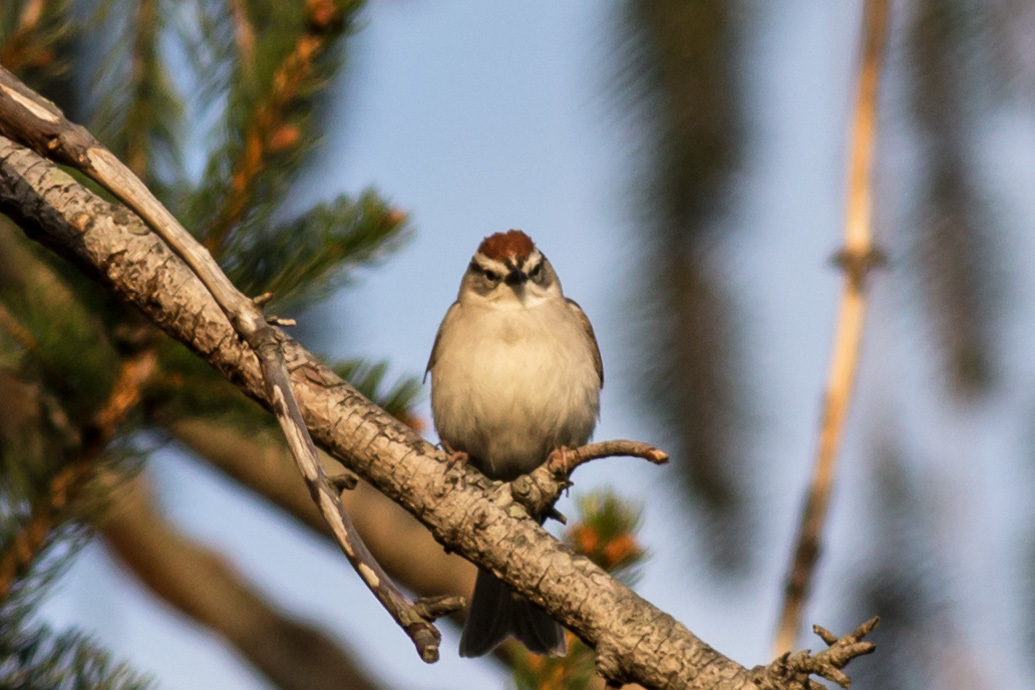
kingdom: Animalia
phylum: Chordata
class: Aves
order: Passeriformes
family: Passerellidae
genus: Spizella
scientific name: Spizella passerina
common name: Chipping sparrow
